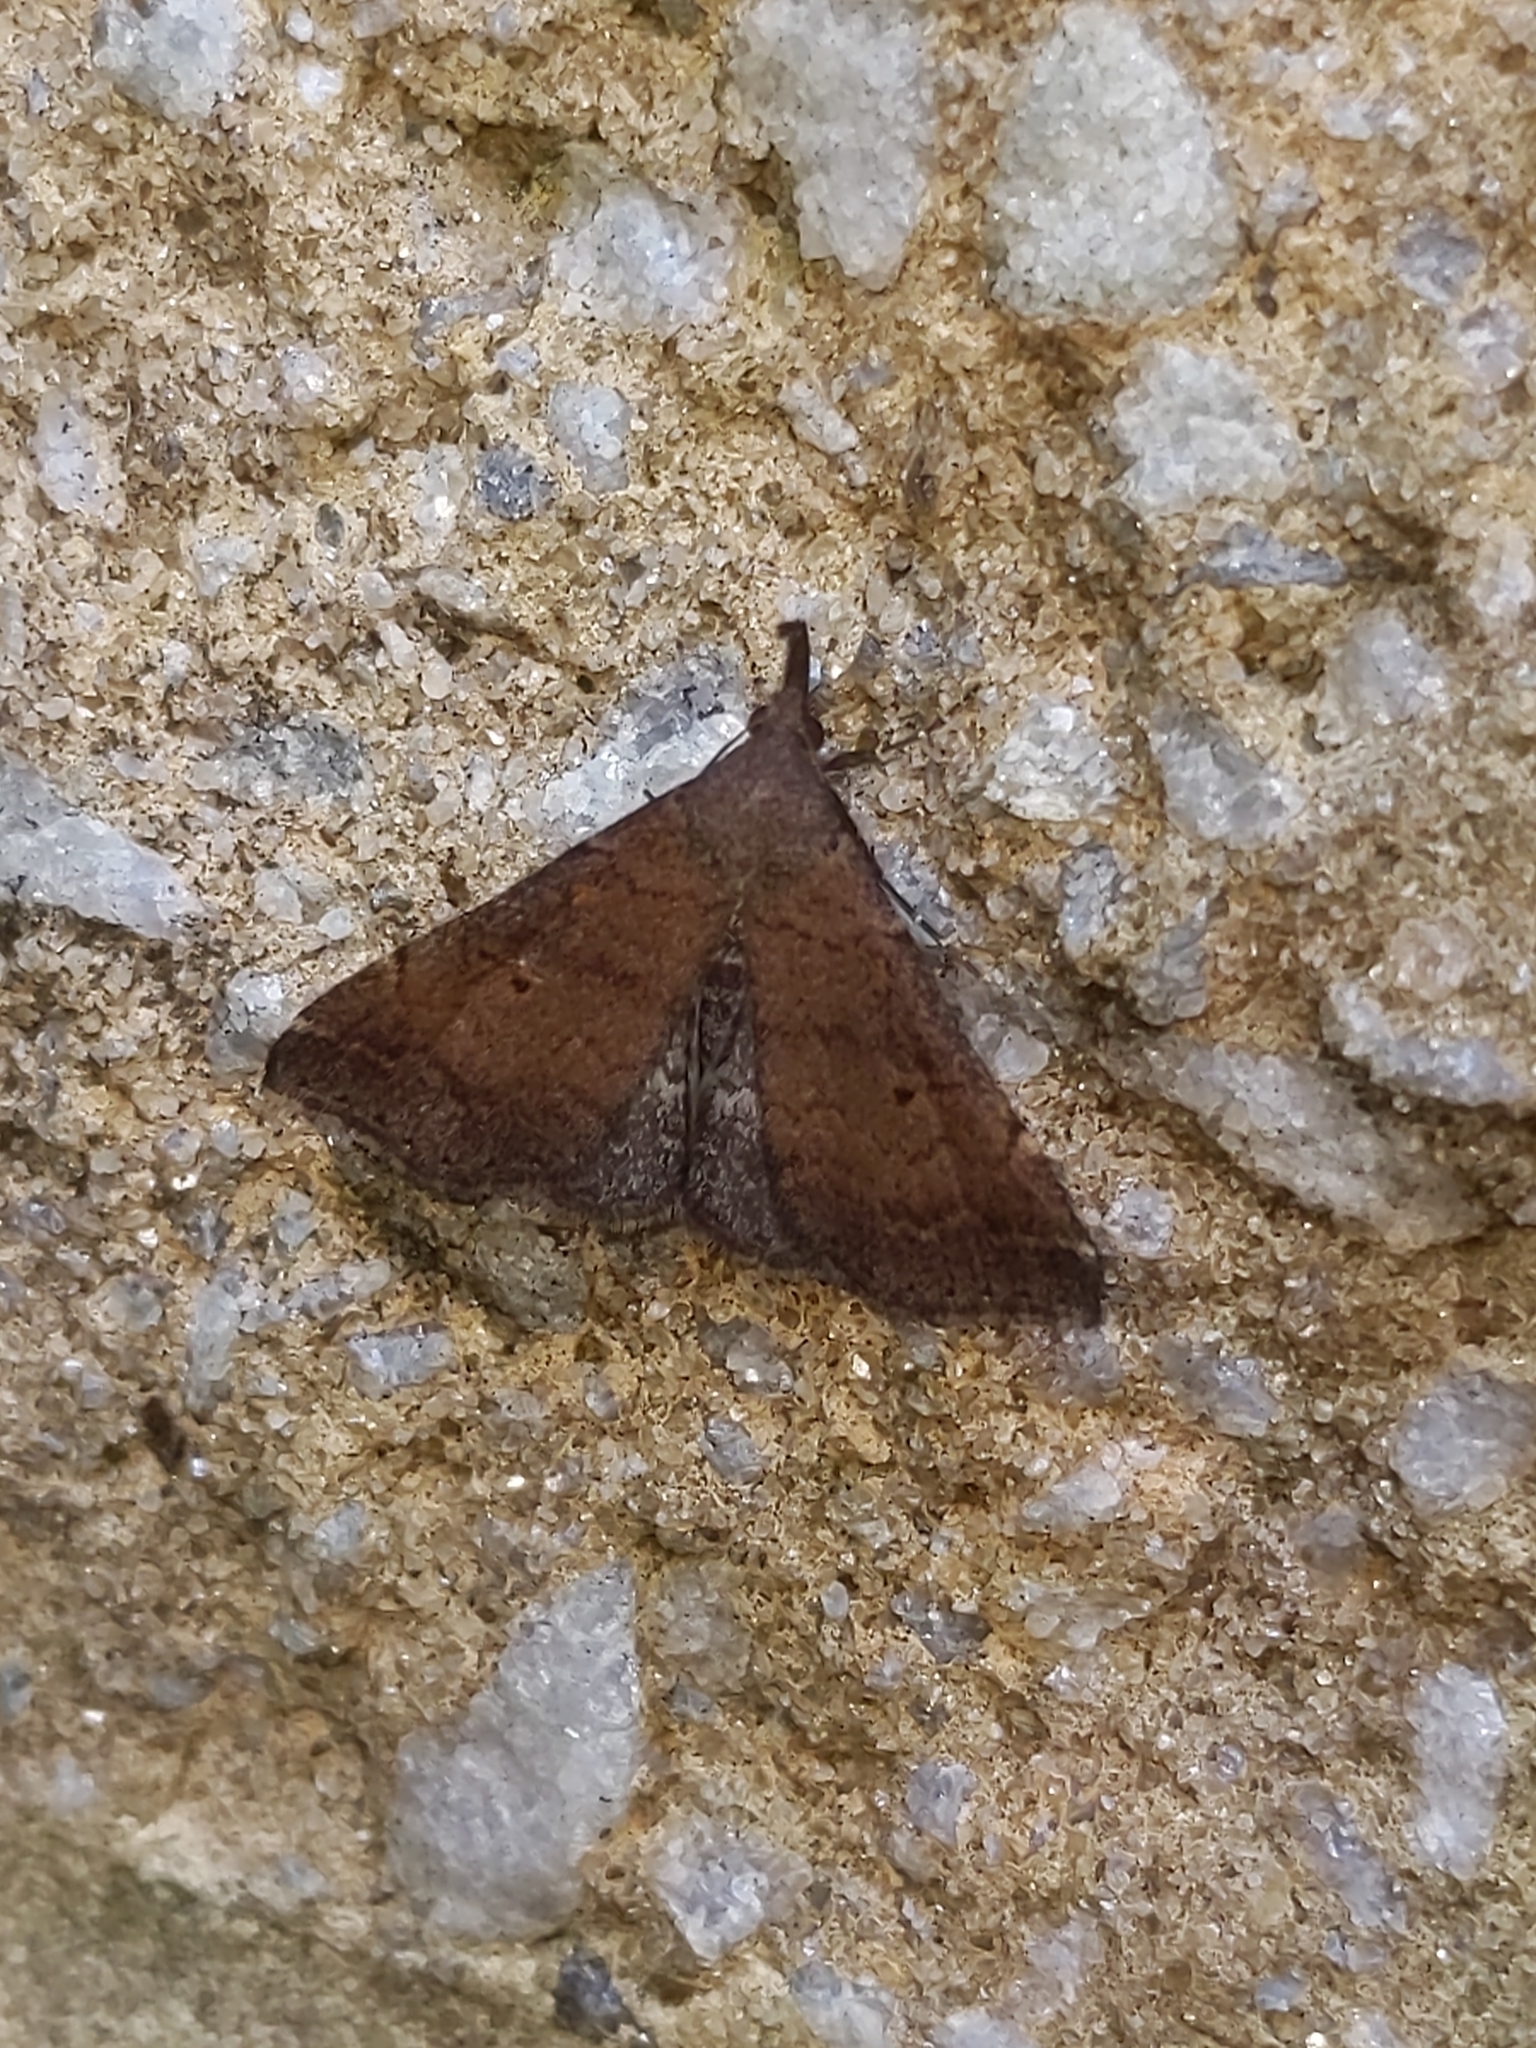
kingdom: Animalia
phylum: Arthropoda
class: Insecta
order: Lepidoptera
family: Erebidae
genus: Renia
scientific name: Renia factiosalis
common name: Sociable renia moth
